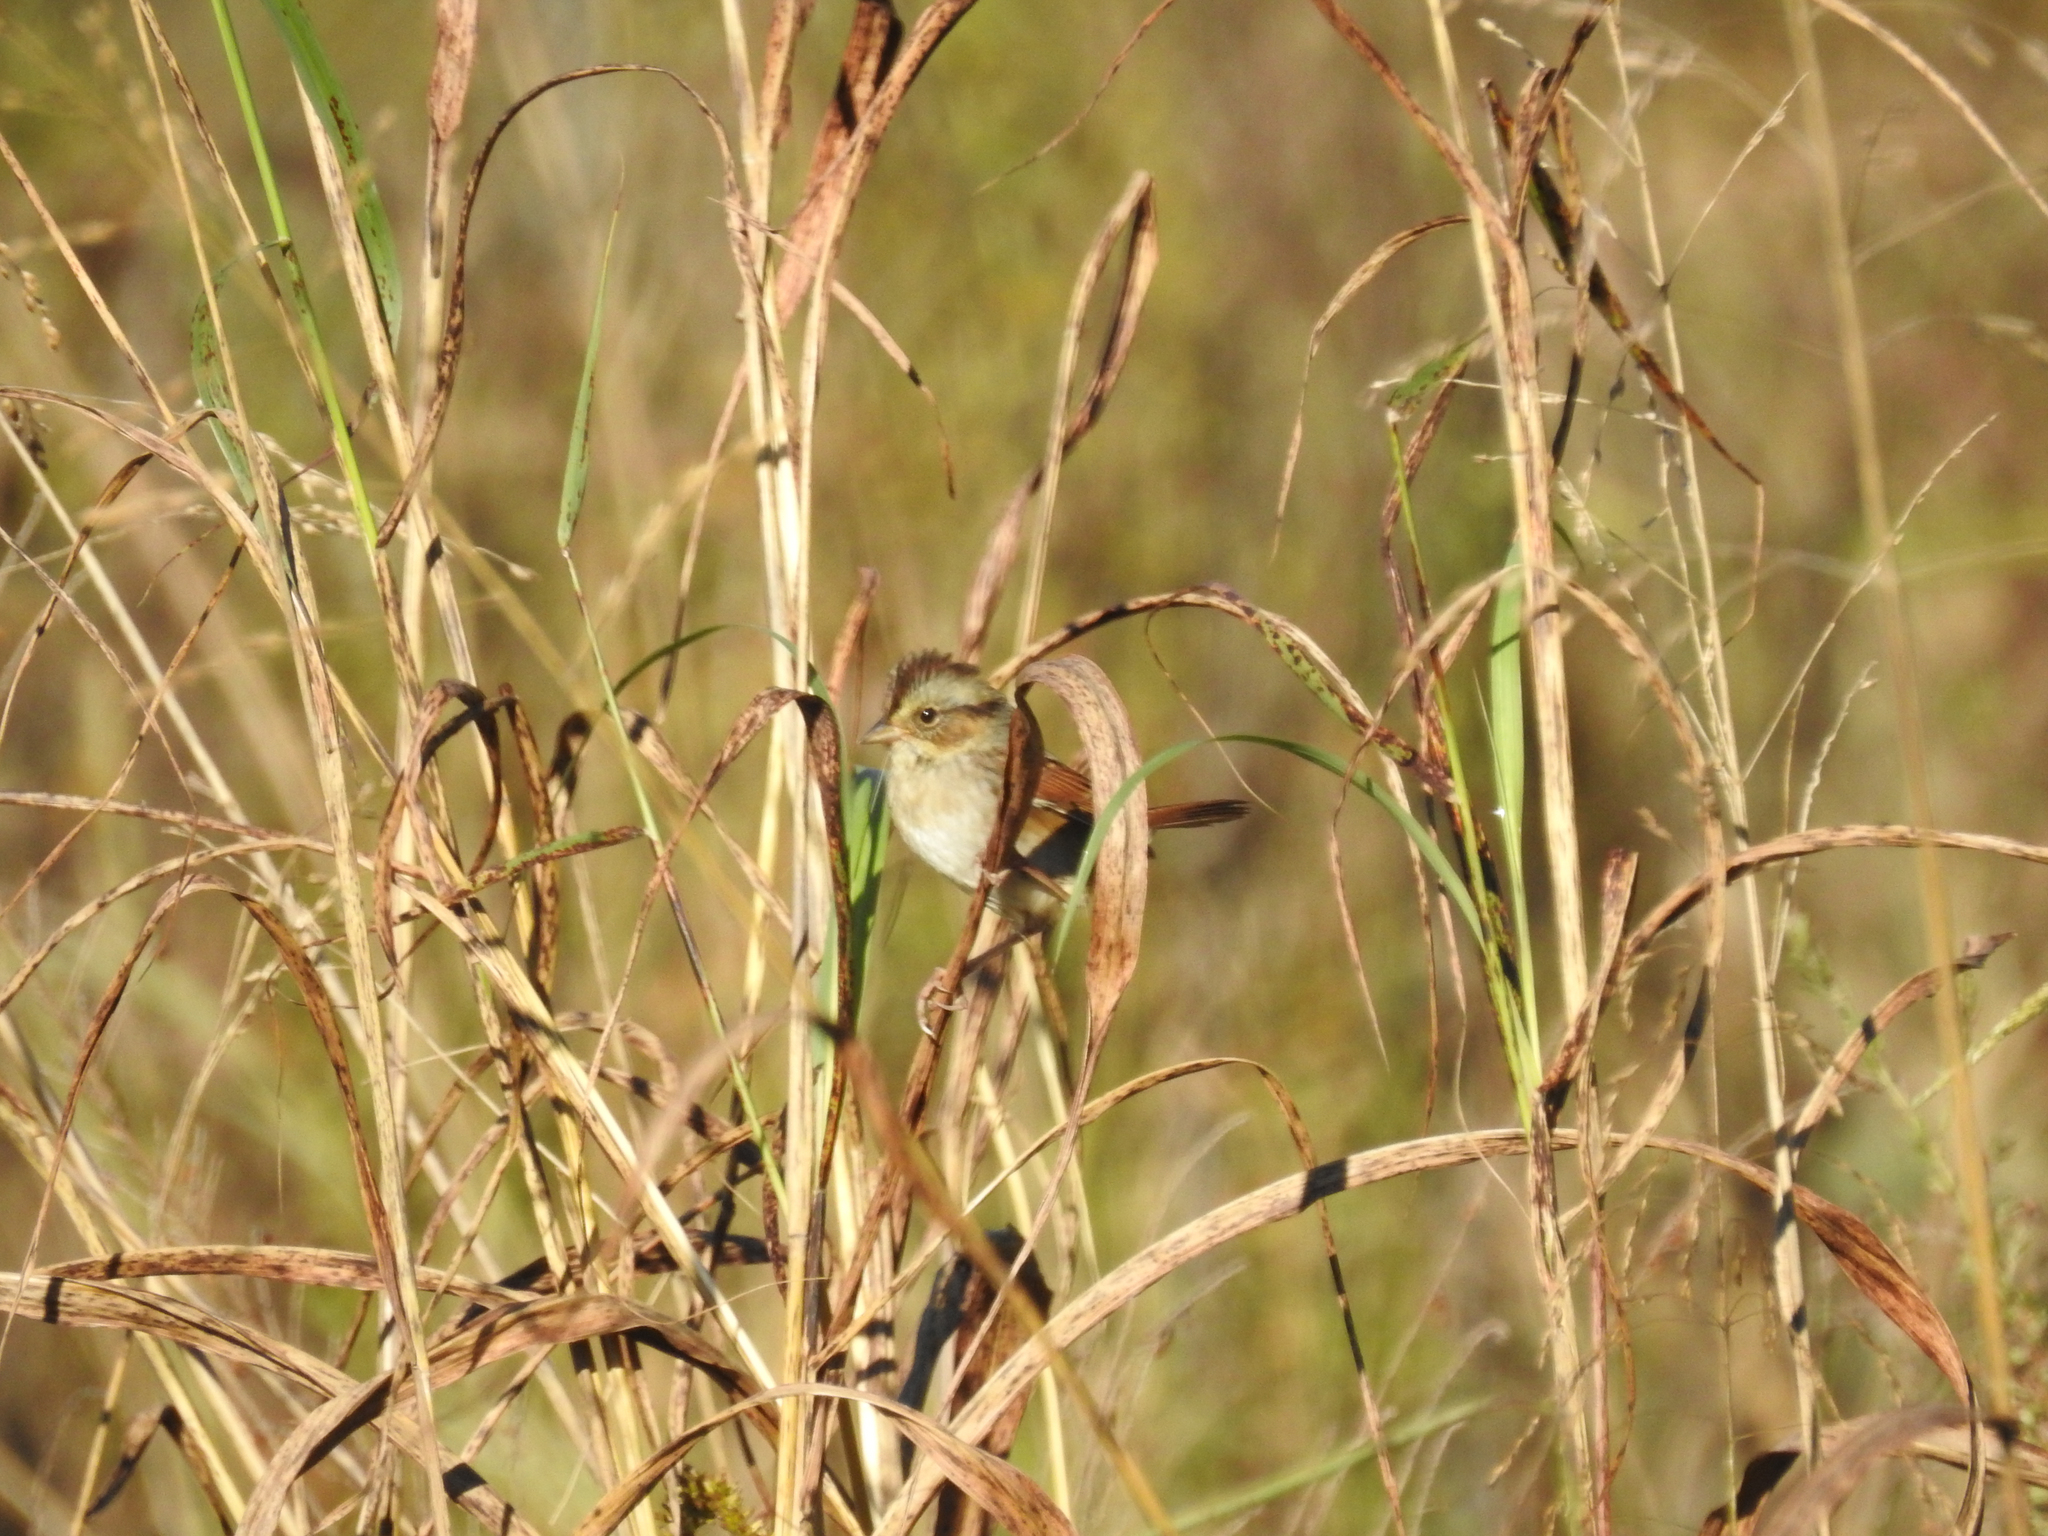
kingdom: Animalia
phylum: Chordata
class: Aves
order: Passeriformes
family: Passerellidae
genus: Melospiza
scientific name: Melospiza georgiana
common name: Swamp sparrow
